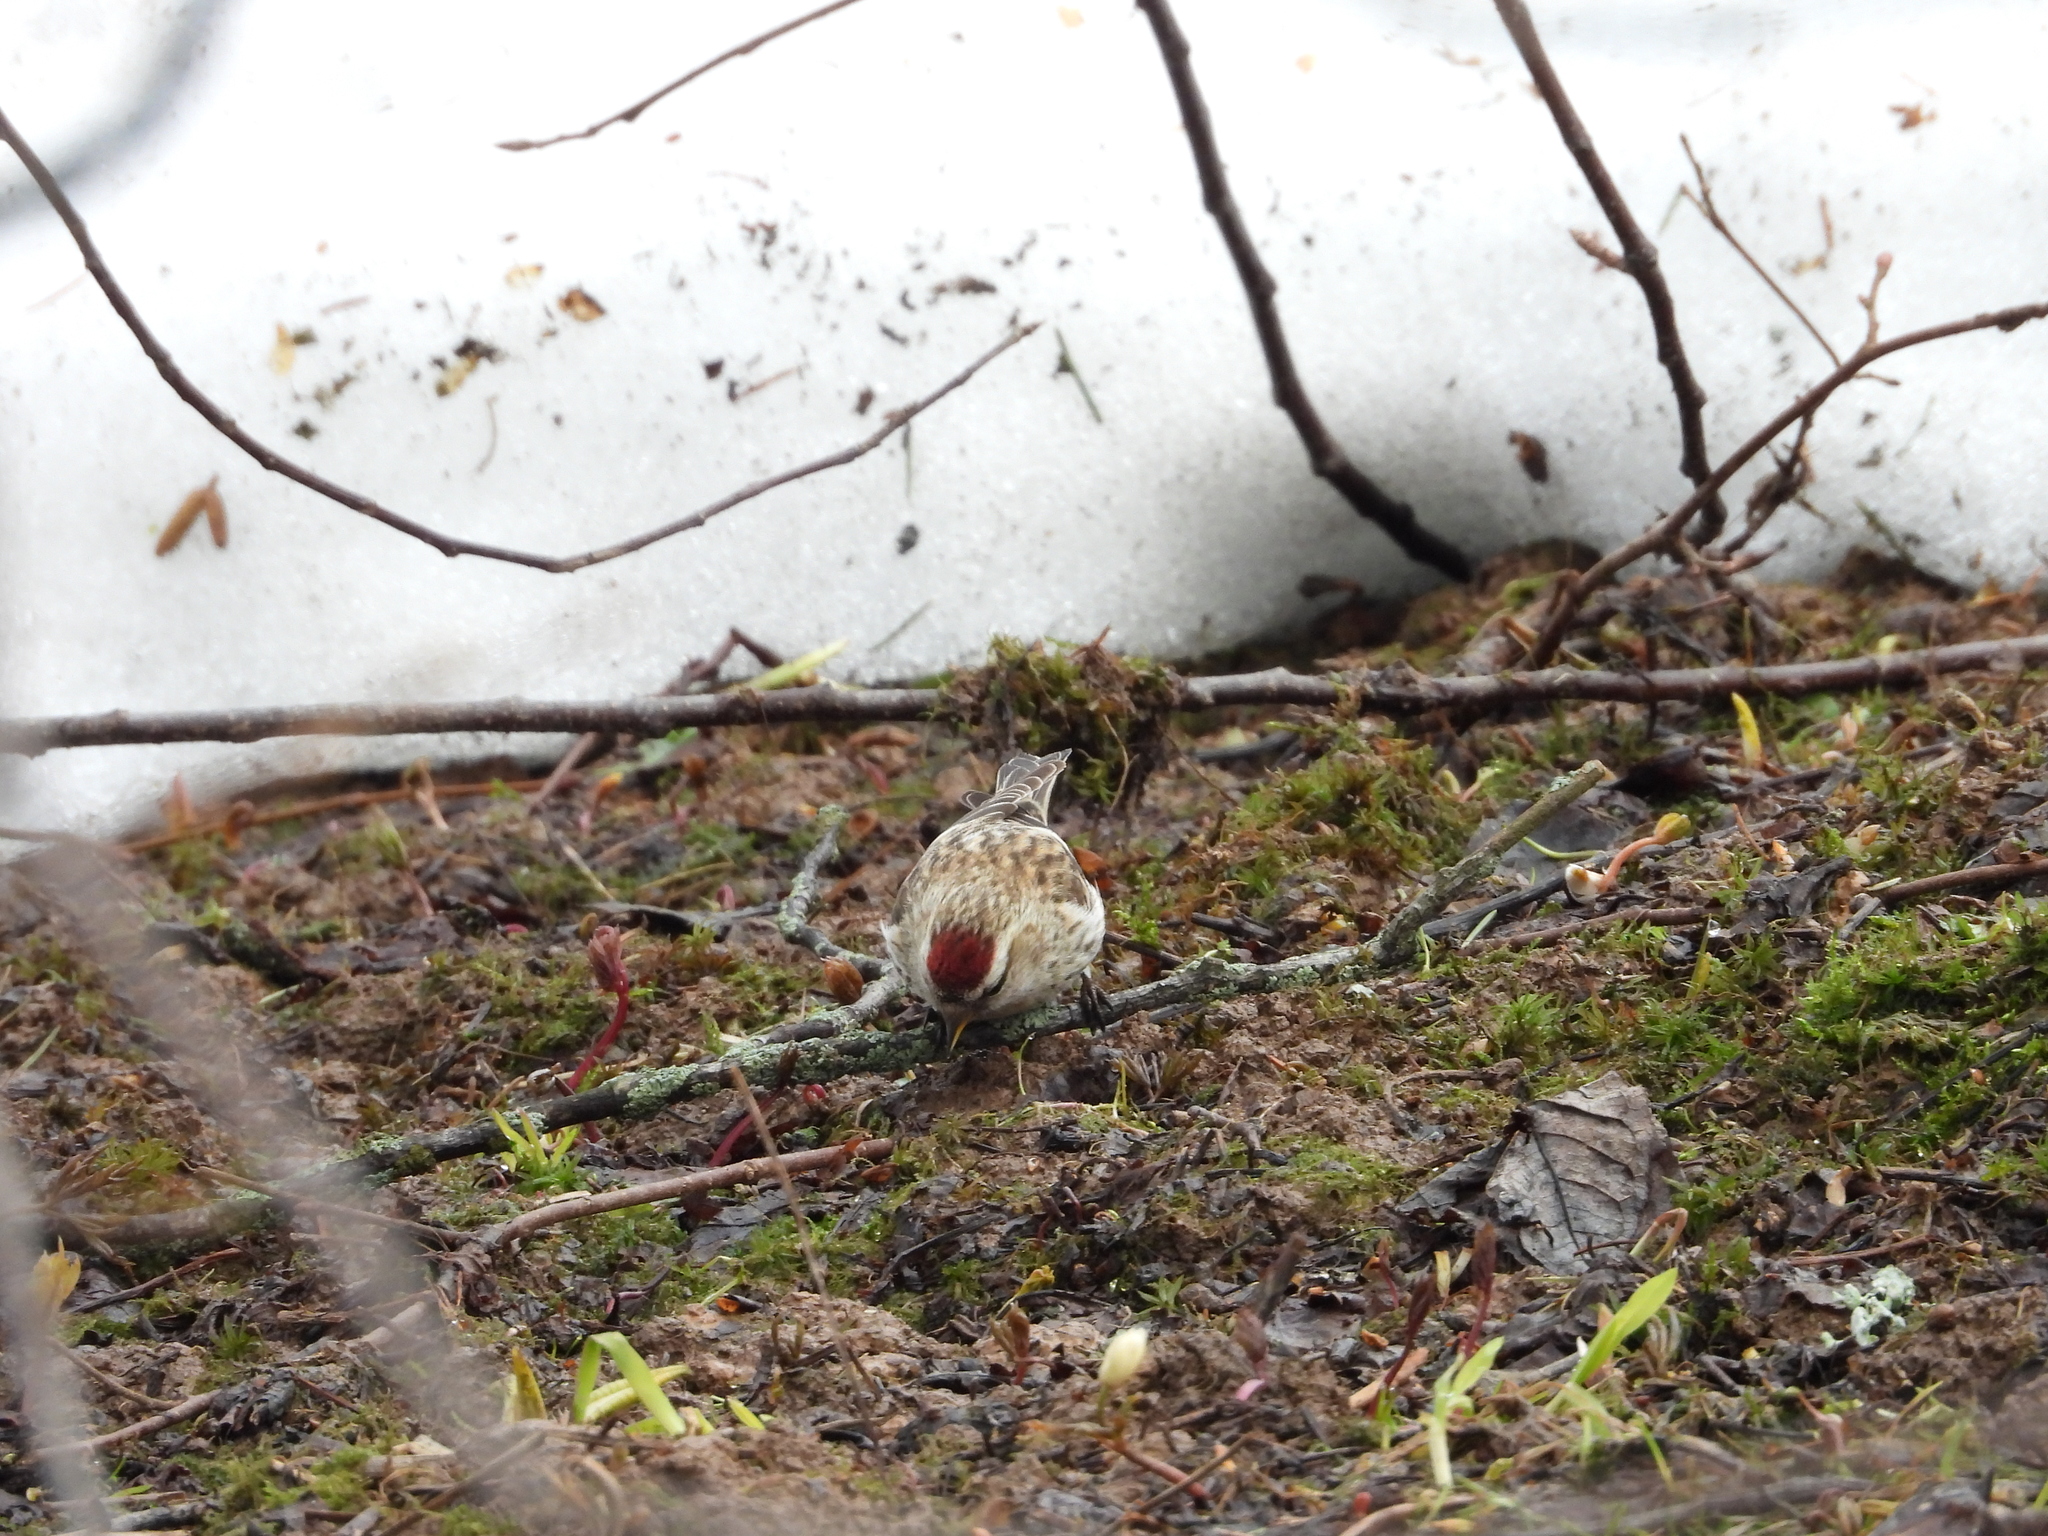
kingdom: Animalia
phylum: Chordata
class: Aves
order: Passeriformes
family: Fringillidae
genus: Acanthis
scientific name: Acanthis flammea
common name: Common redpoll
